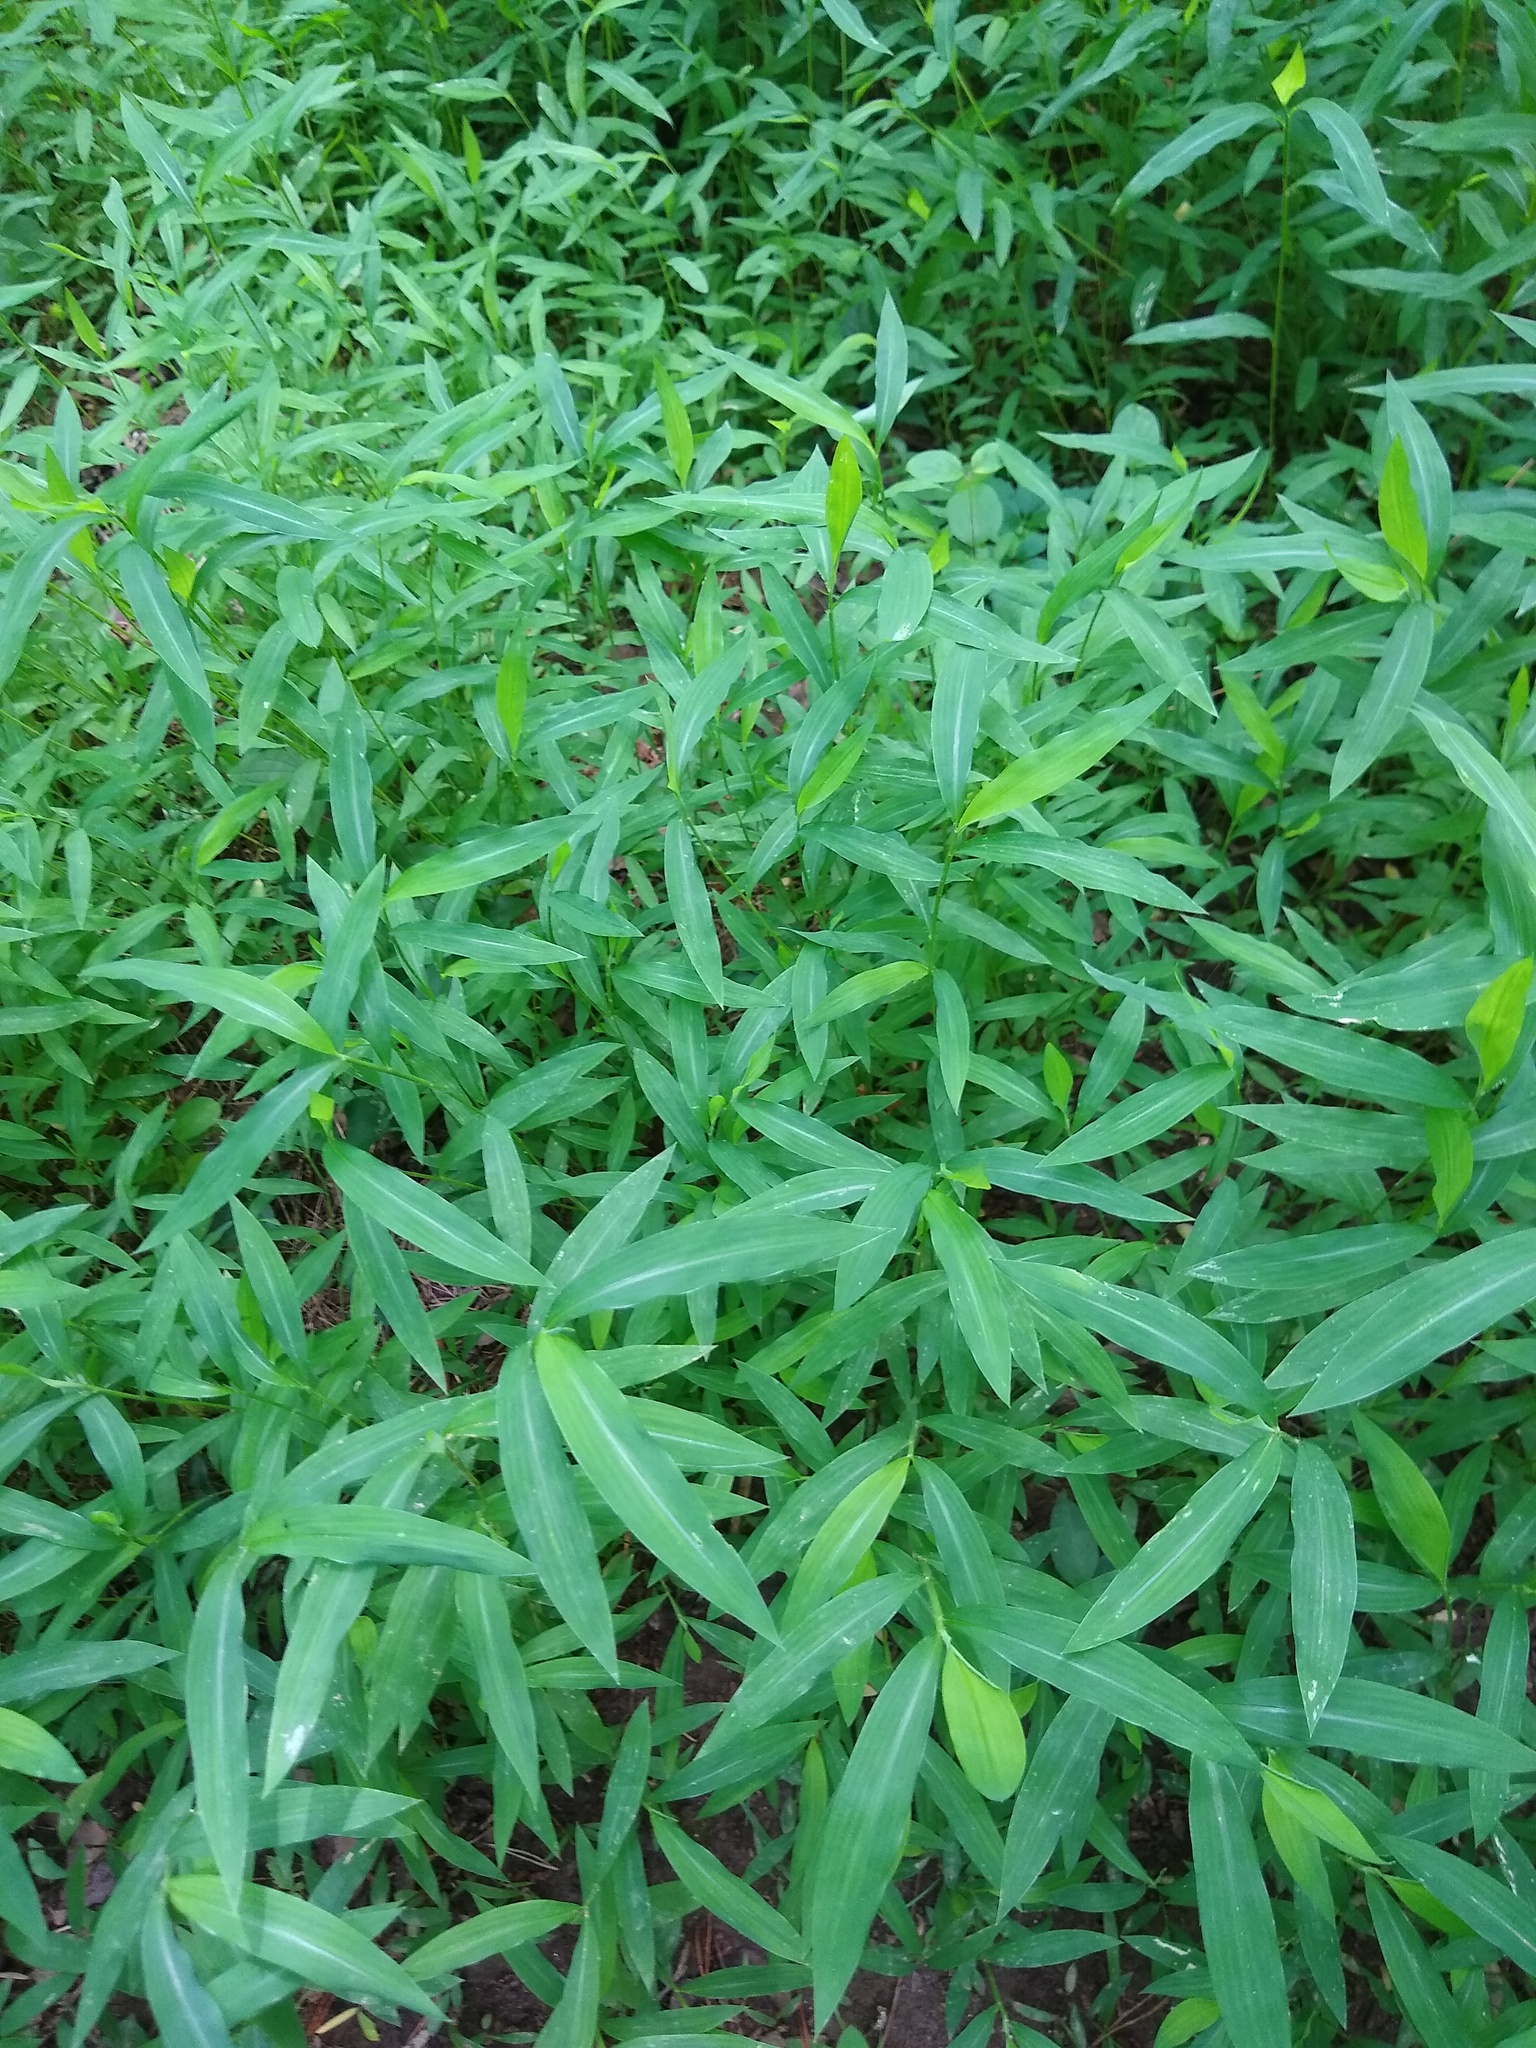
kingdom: Plantae
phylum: Tracheophyta
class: Liliopsida
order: Poales
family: Poaceae
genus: Microstegium
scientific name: Microstegium vimineum
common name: Japanese stiltgrass
